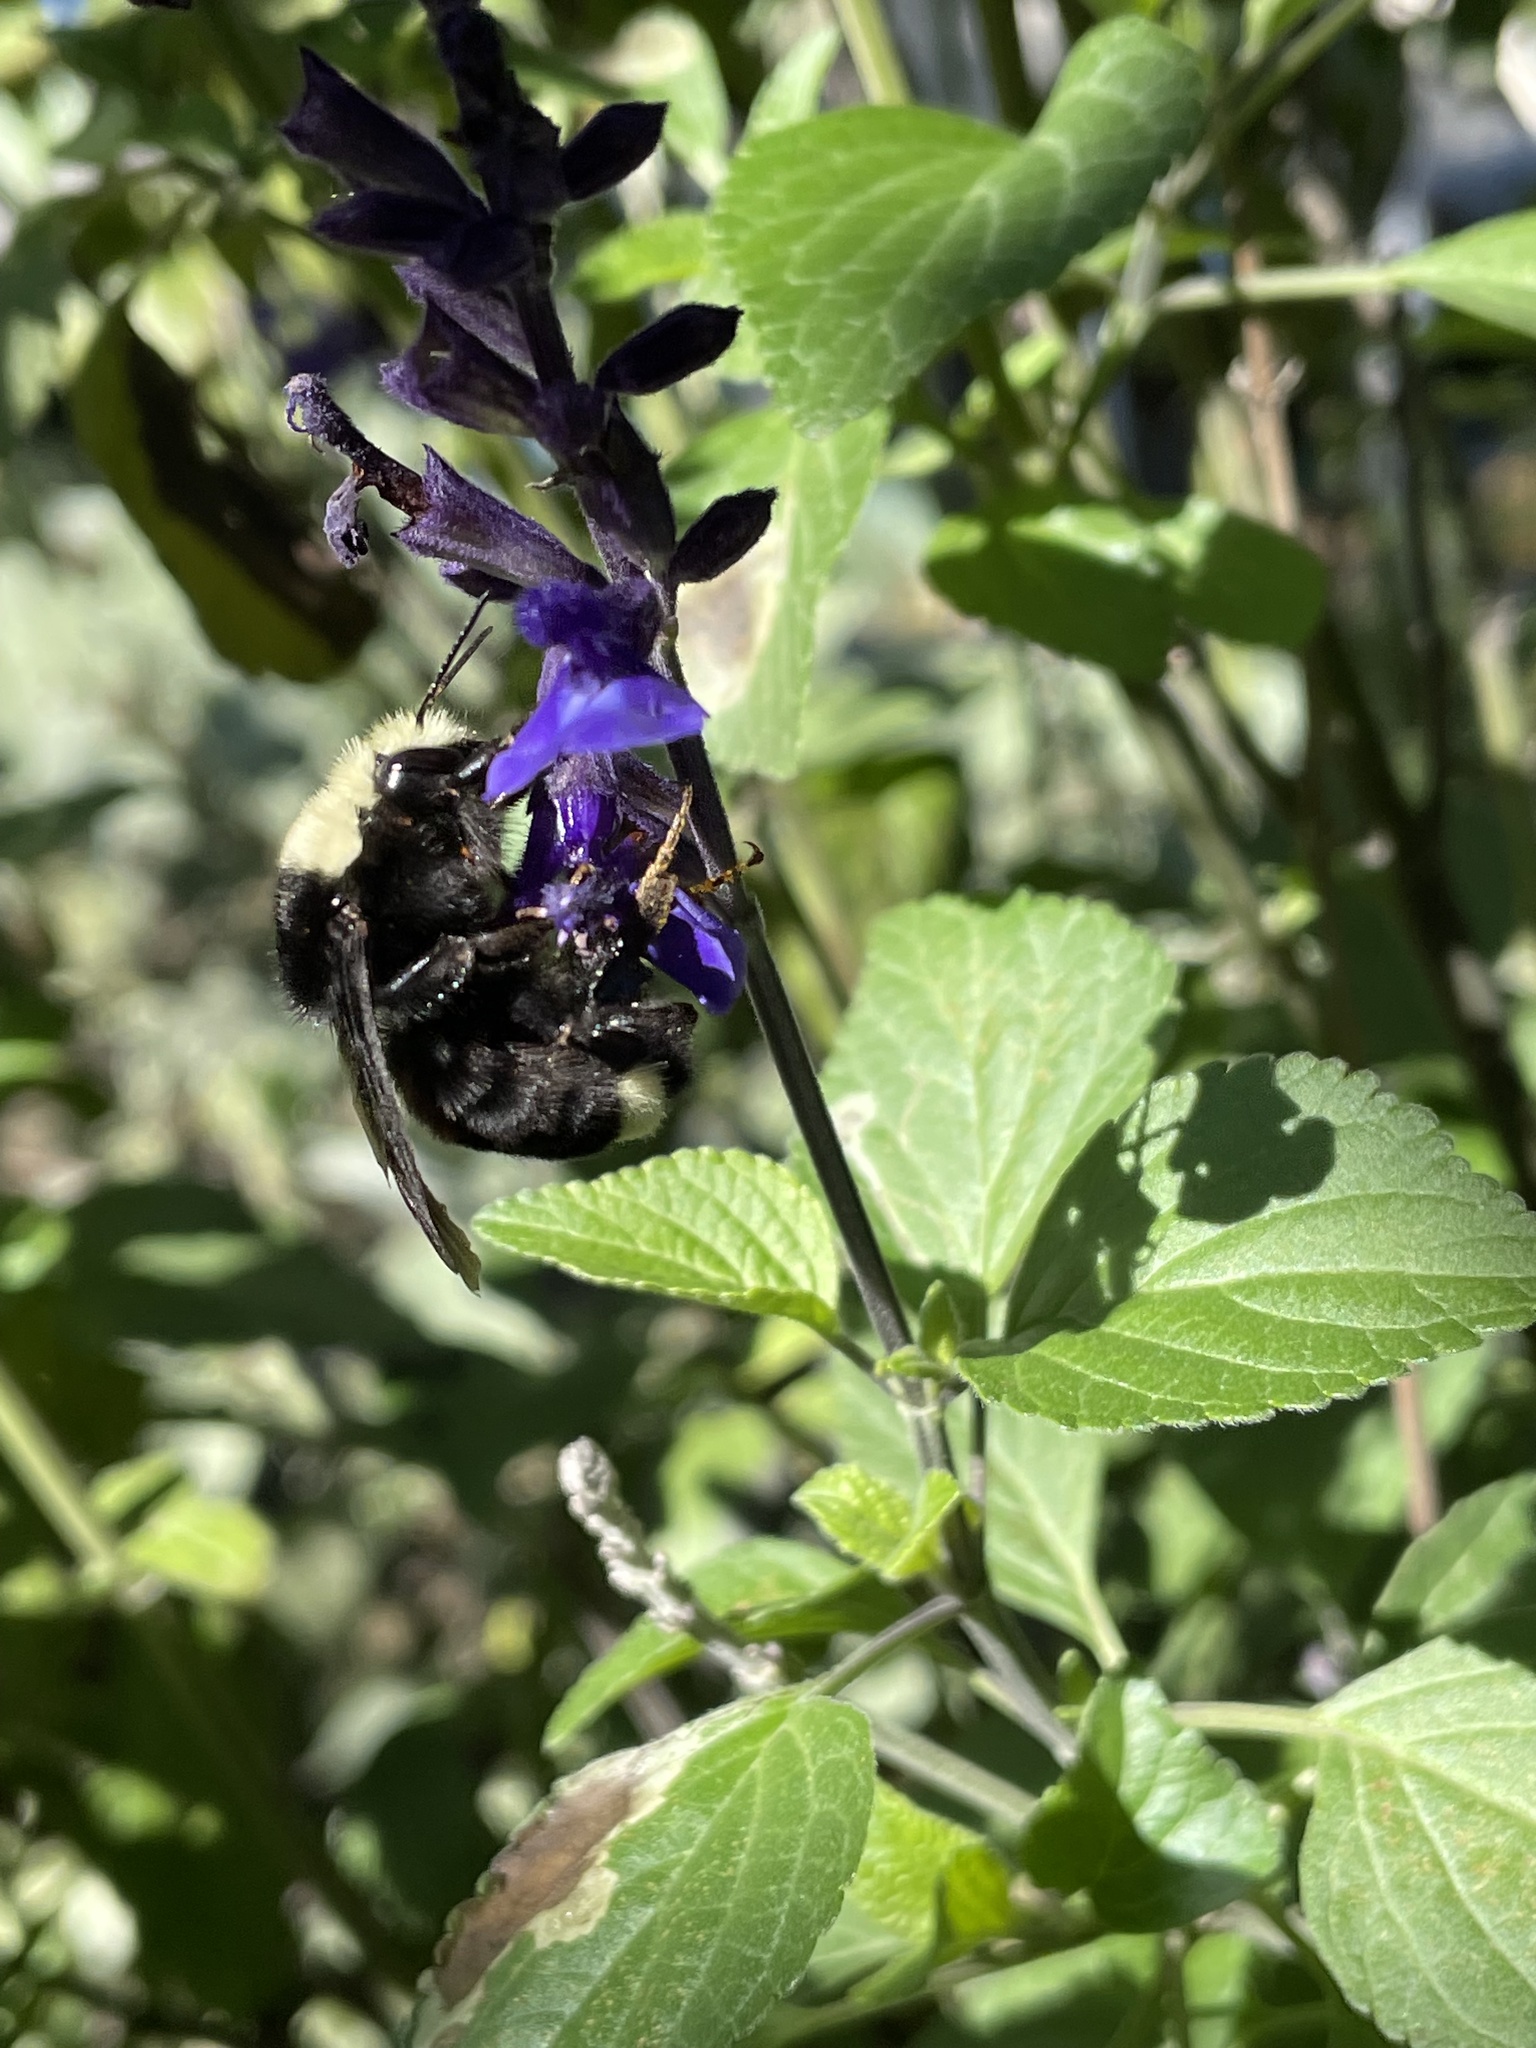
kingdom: Animalia
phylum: Arthropoda
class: Insecta
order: Hymenoptera
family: Apidae
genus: Bombus
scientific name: Bombus vosnesenskii
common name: Vosnesensky bumble bee
